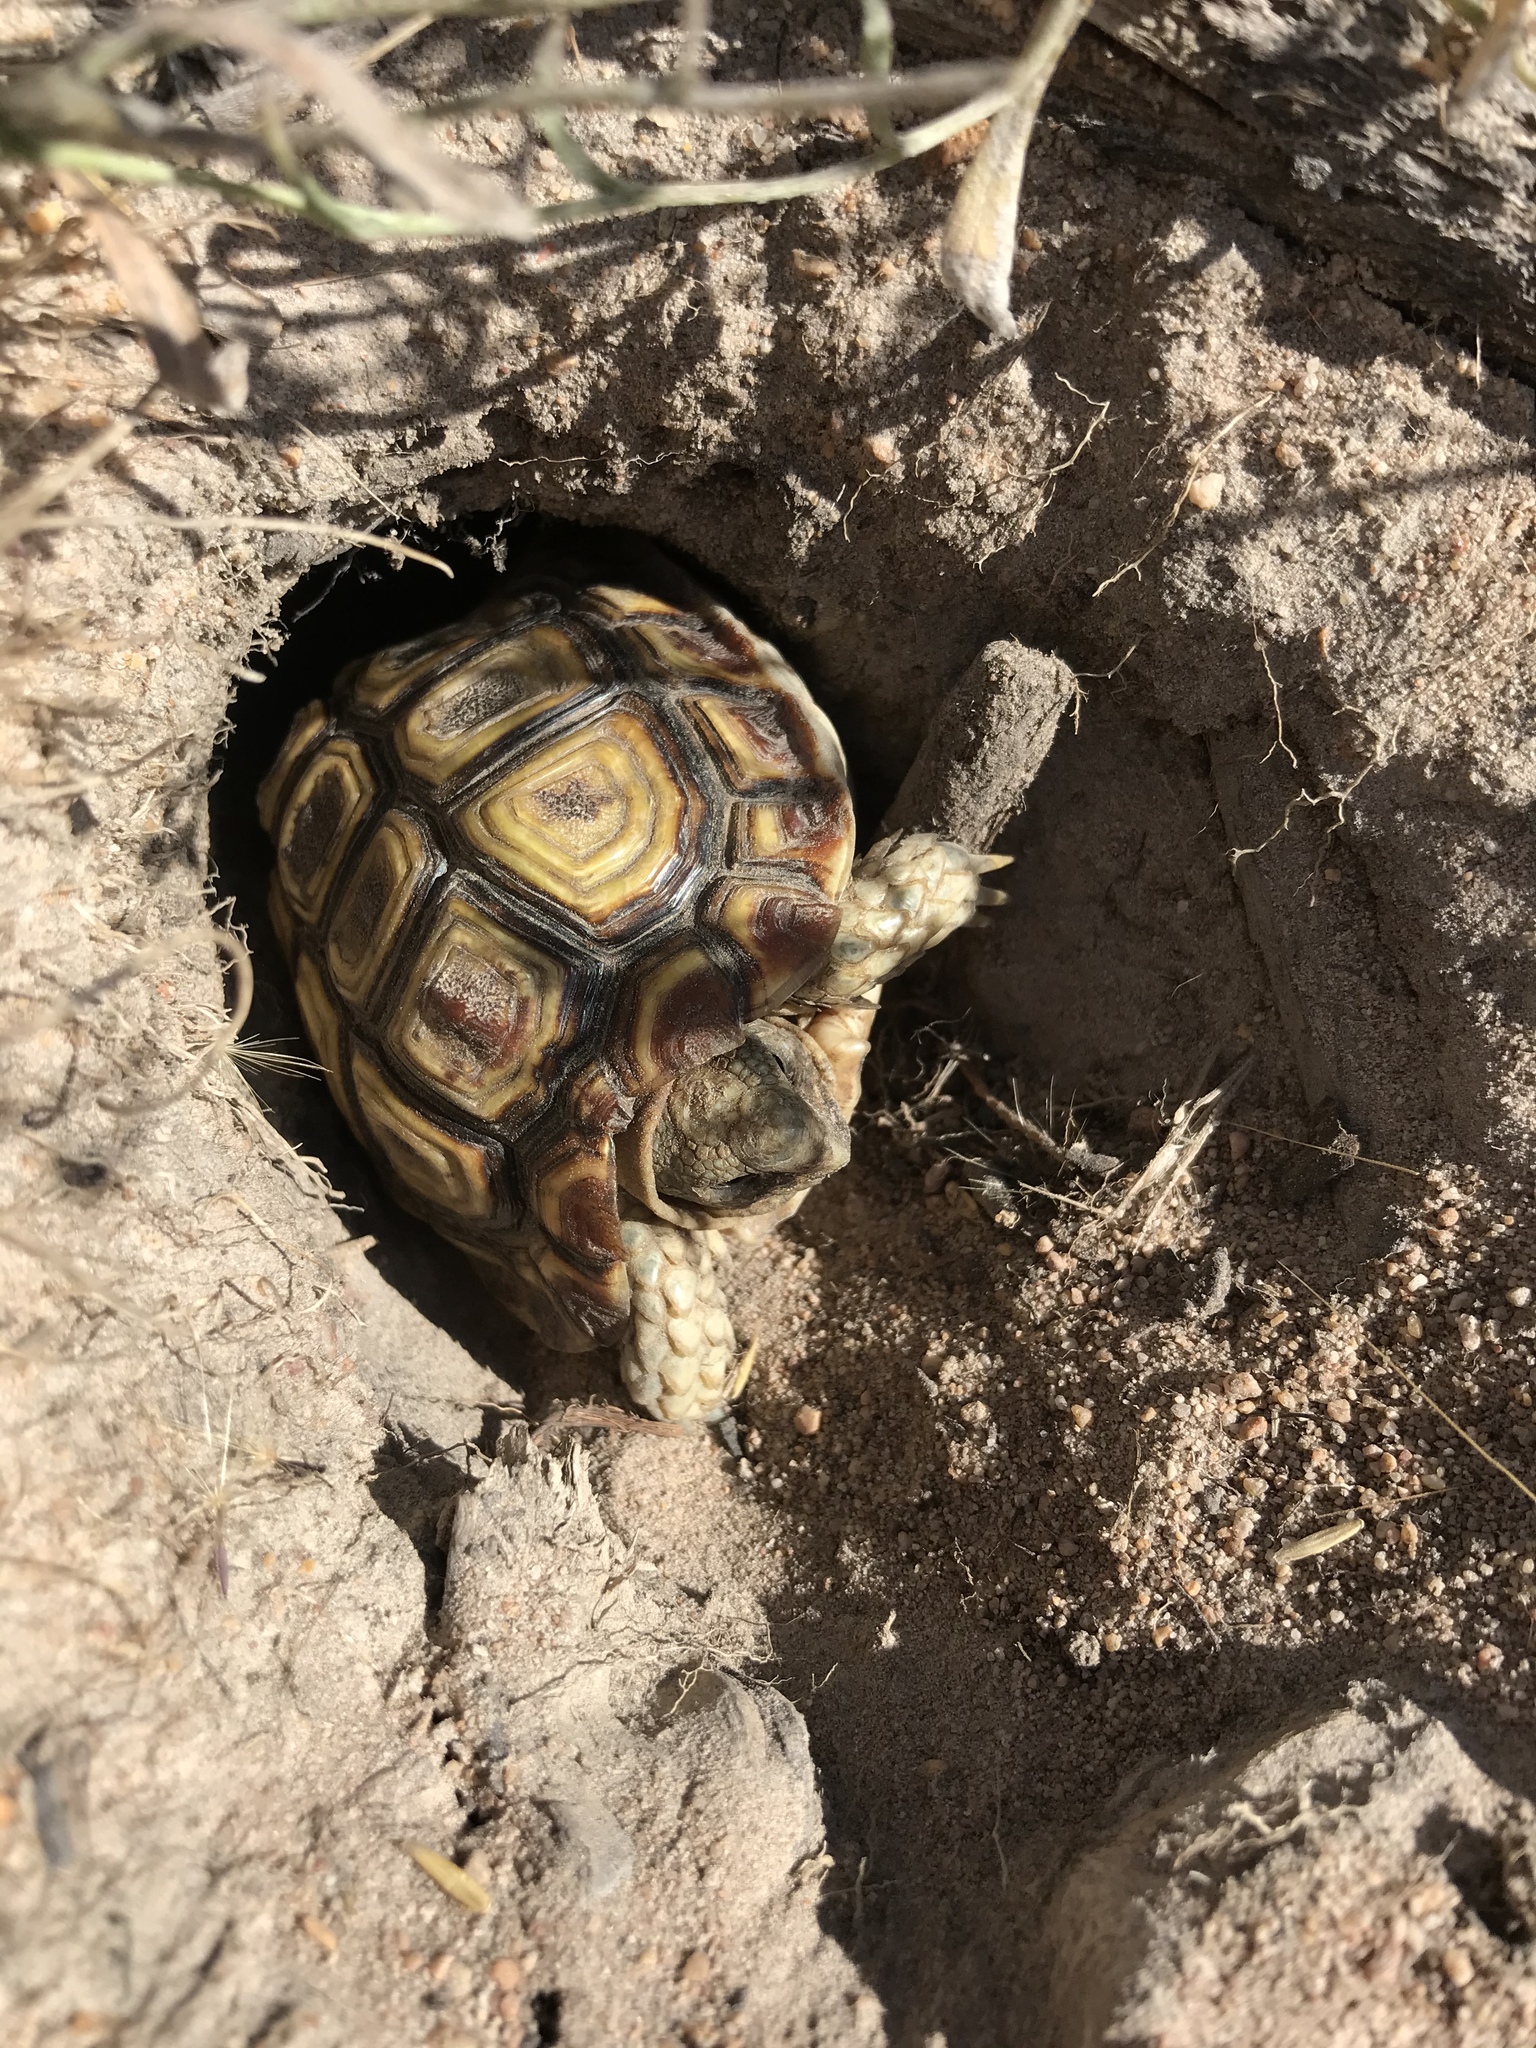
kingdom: Animalia
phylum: Chordata
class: Testudines
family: Testudinidae
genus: Homopus
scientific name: Homopus areolatus
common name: Parrot-beaked tortoise
